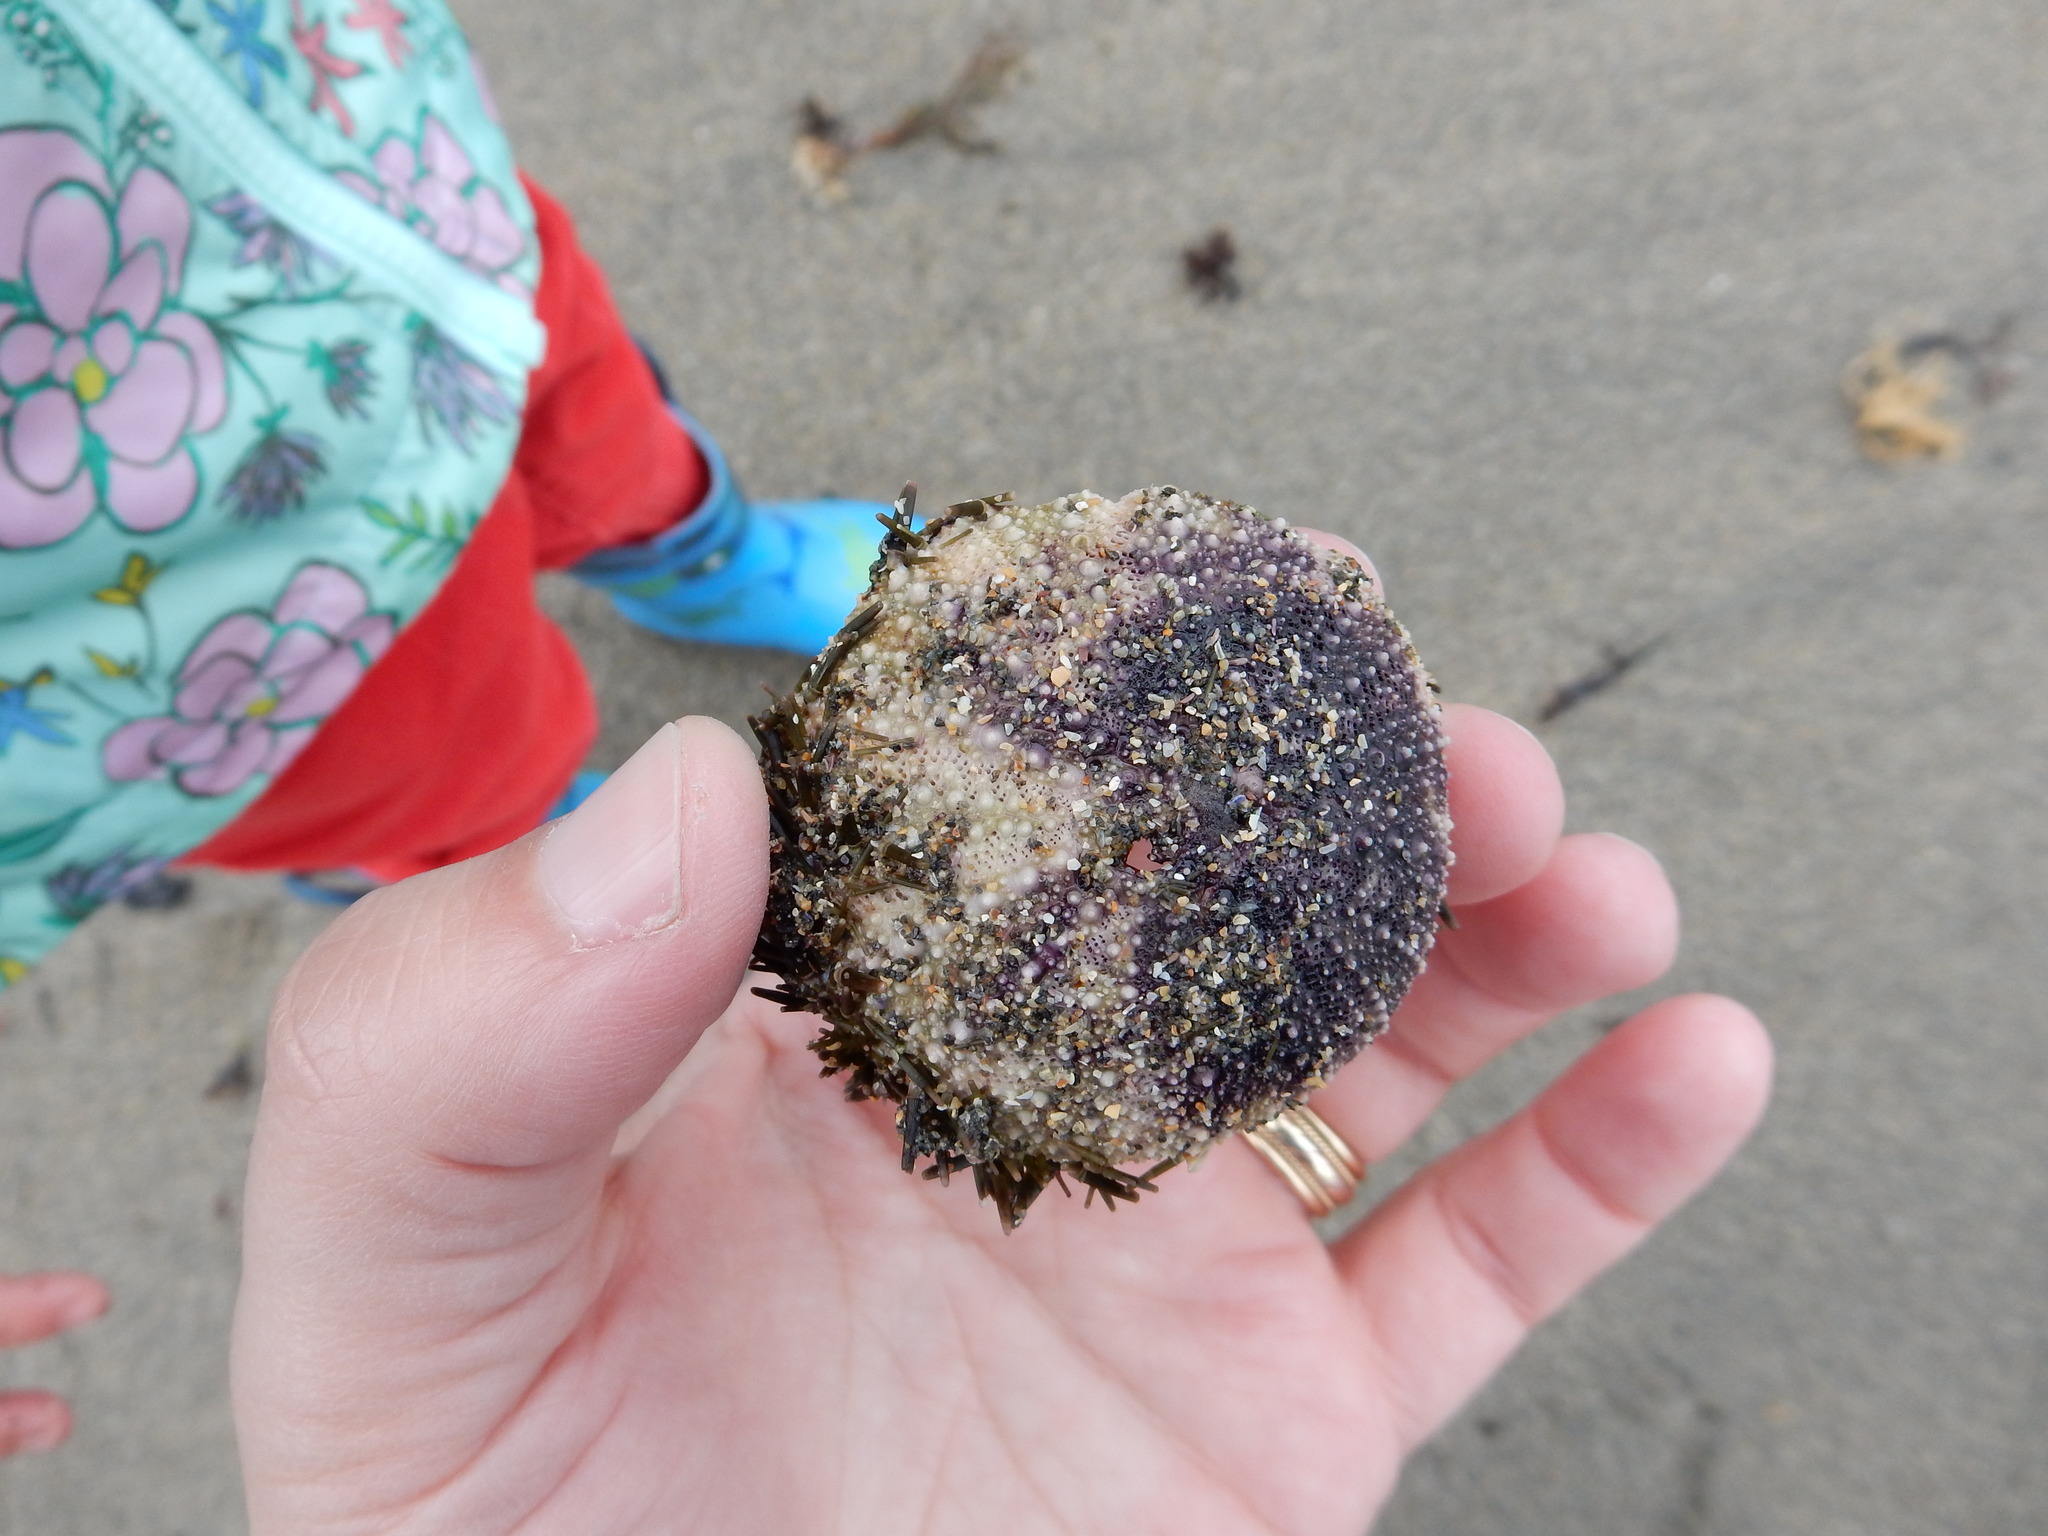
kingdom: Animalia
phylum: Echinodermata
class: Echinoidea
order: Camarodonta
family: Strongylocentrotidae
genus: Strongylocentrotus
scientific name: Strongylocentrotus droebachiensis
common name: Northern sea urchin
